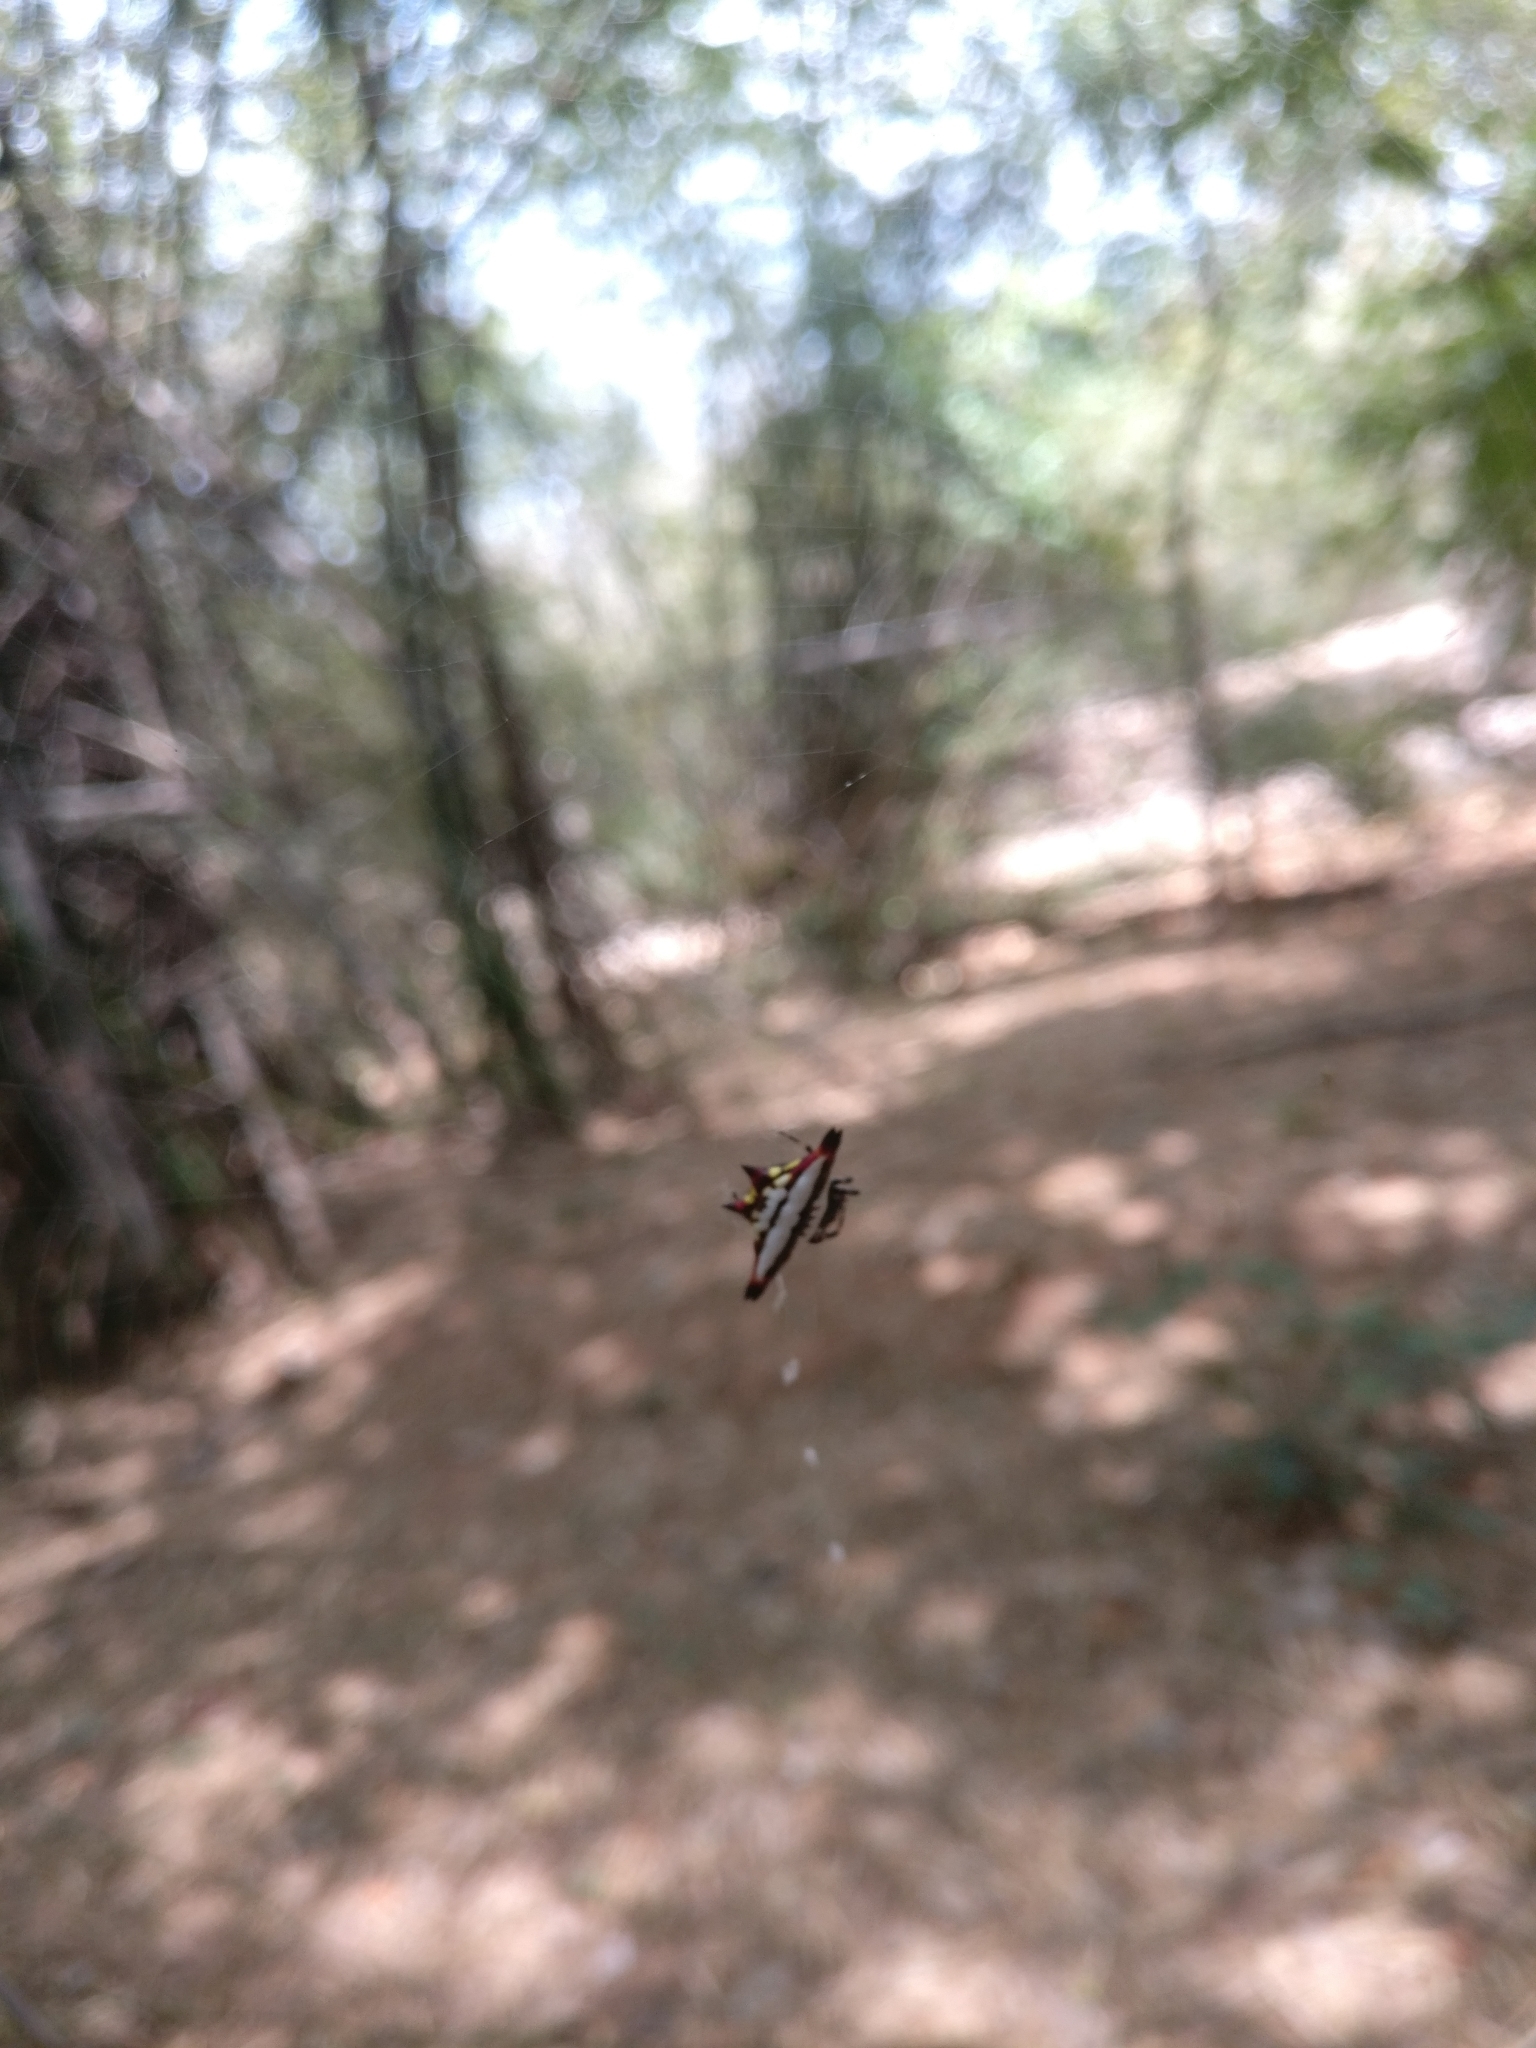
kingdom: Animalia
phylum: Arthropoda
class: Arachnida
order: Araneae
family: Araneidae
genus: Gasteracantha
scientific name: Gasteracantha geminata
